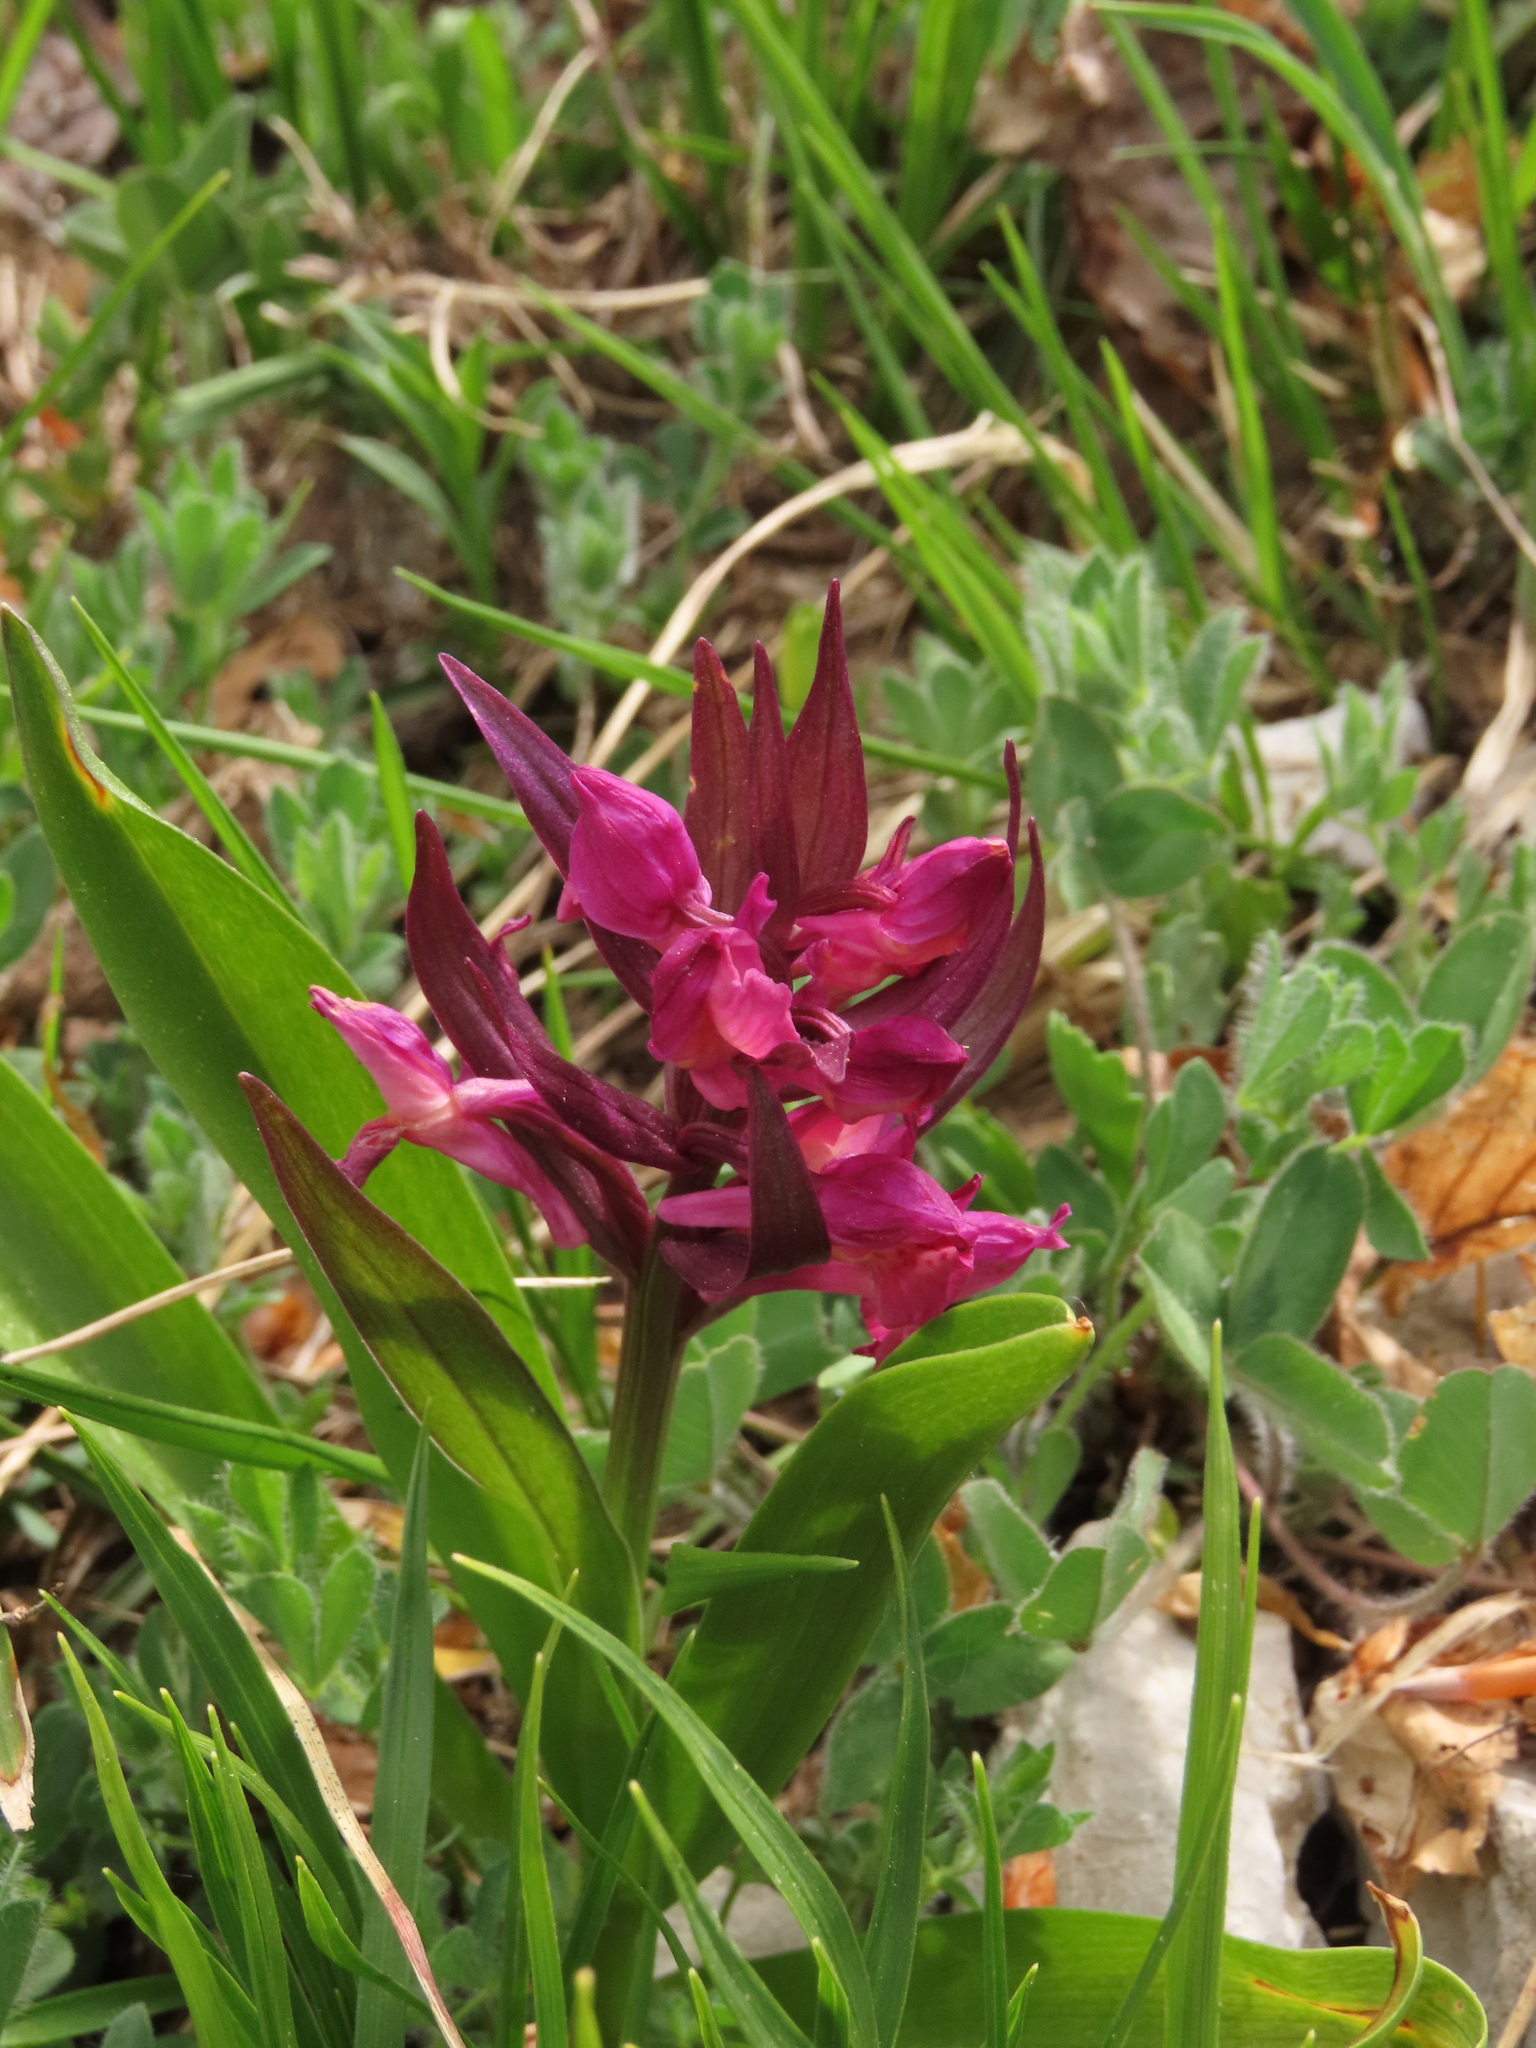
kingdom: Plantae
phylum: Tracheophyta
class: Liliopsida
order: Asparagales
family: Orchidaceae
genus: Dactylorhiza
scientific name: Dactylorhiza sambucina
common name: Elder-flowered orchid
